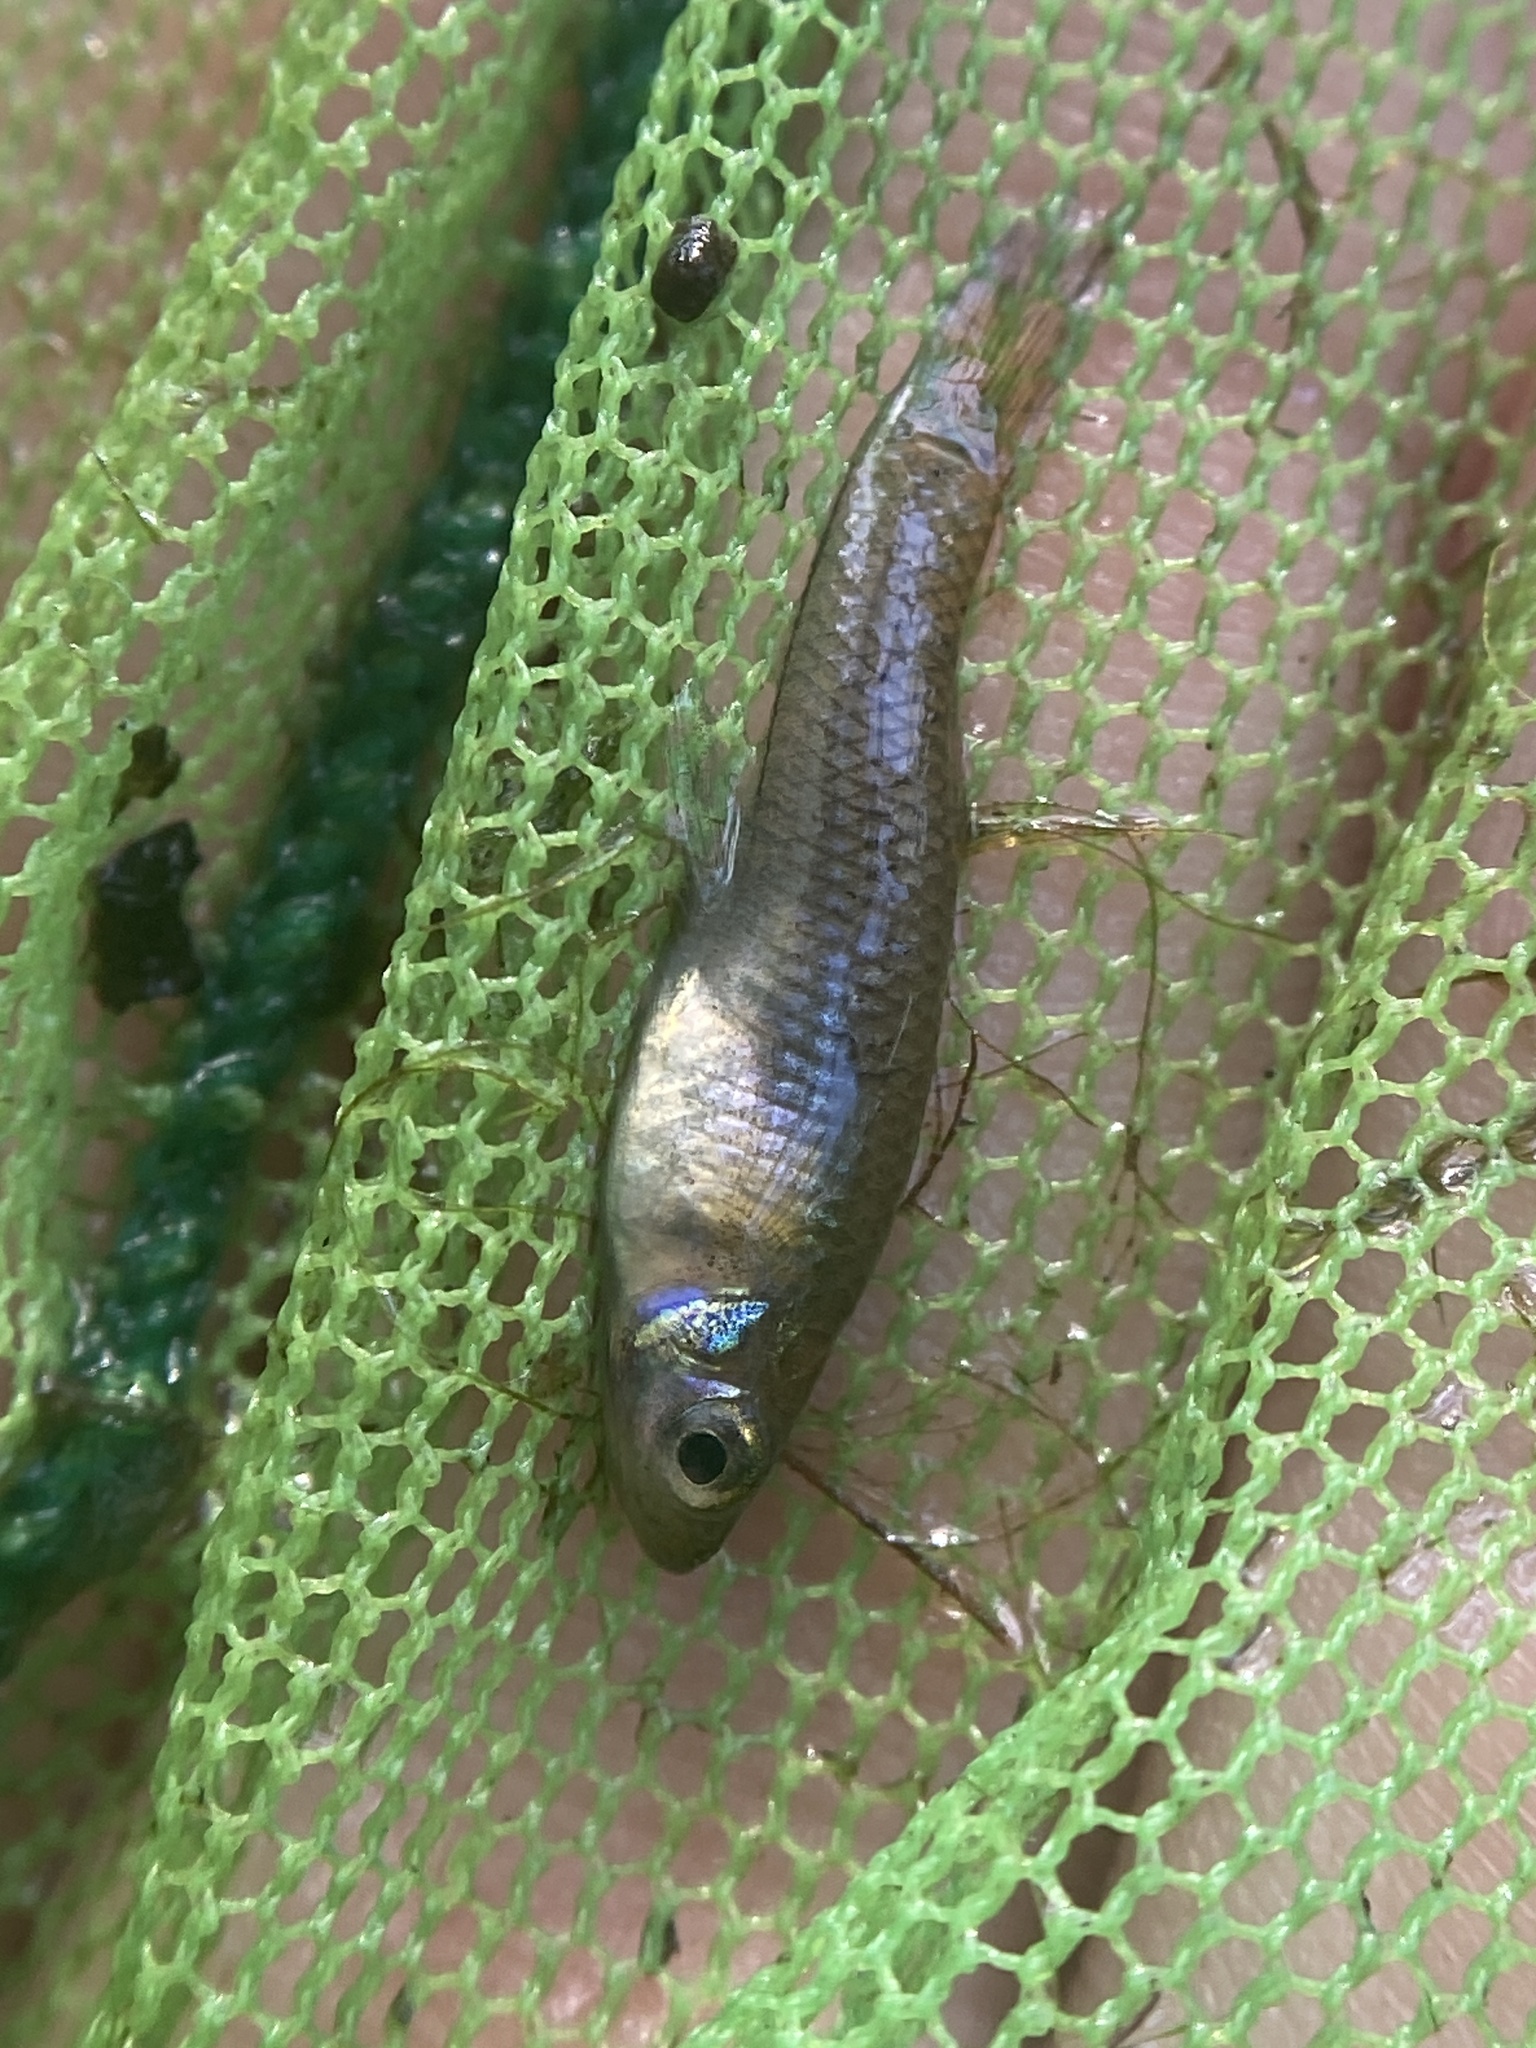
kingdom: Animalia
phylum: Chordata
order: Cyprinodontiformes
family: Poeciliidae
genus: Gambusia
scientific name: Gambusia holbrooki
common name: Eastern mosquitofish
